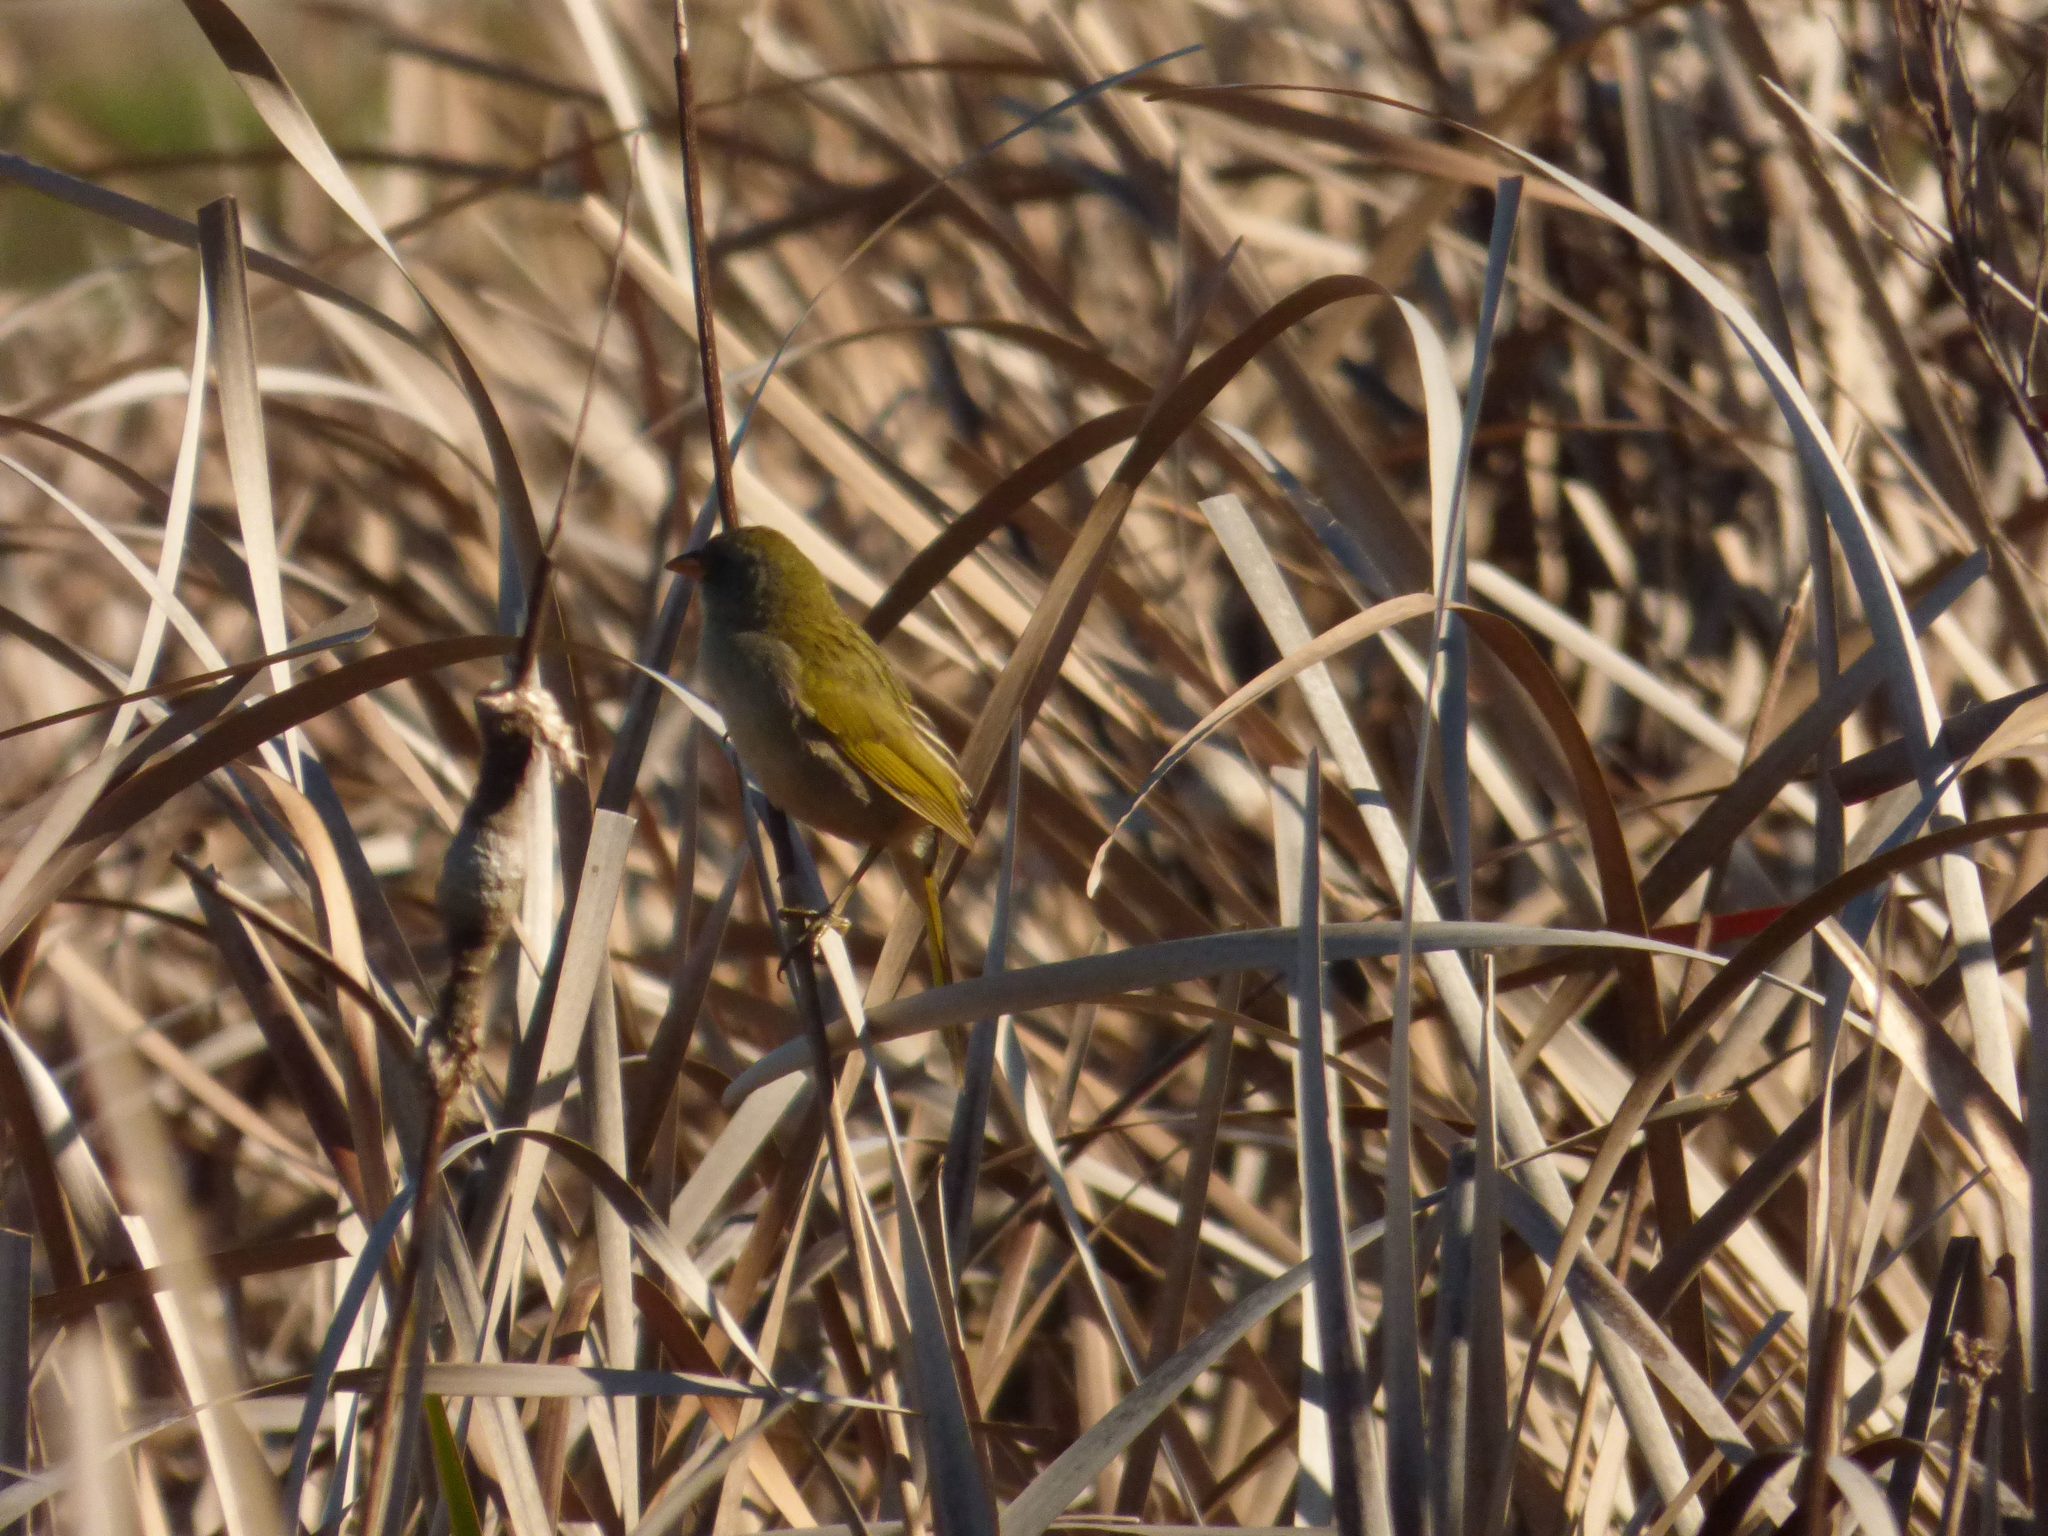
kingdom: Animalia
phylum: Chordata
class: Aves
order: Passeriformes
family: Thraupidae
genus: Embernagra
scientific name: Embernagra platensis
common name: Pampa finch
